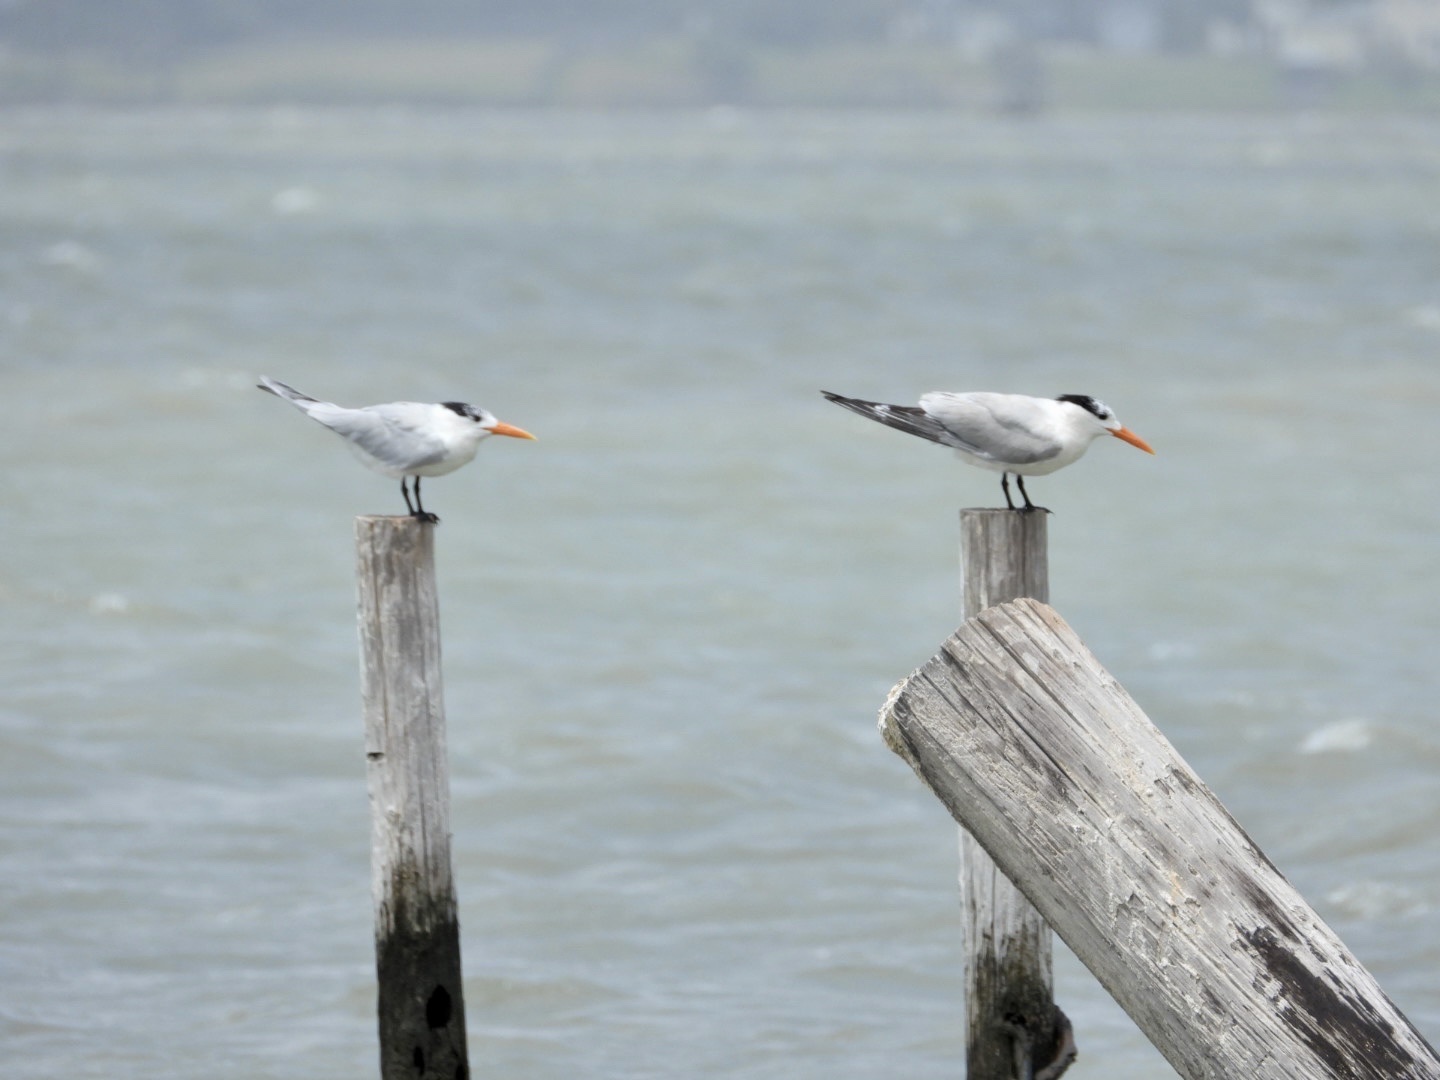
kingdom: Animalia
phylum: Chordata
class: Aves
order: Charadriiformes
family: Laridae
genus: Thalasseus
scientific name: Thalasseus maximus
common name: Royal tern
